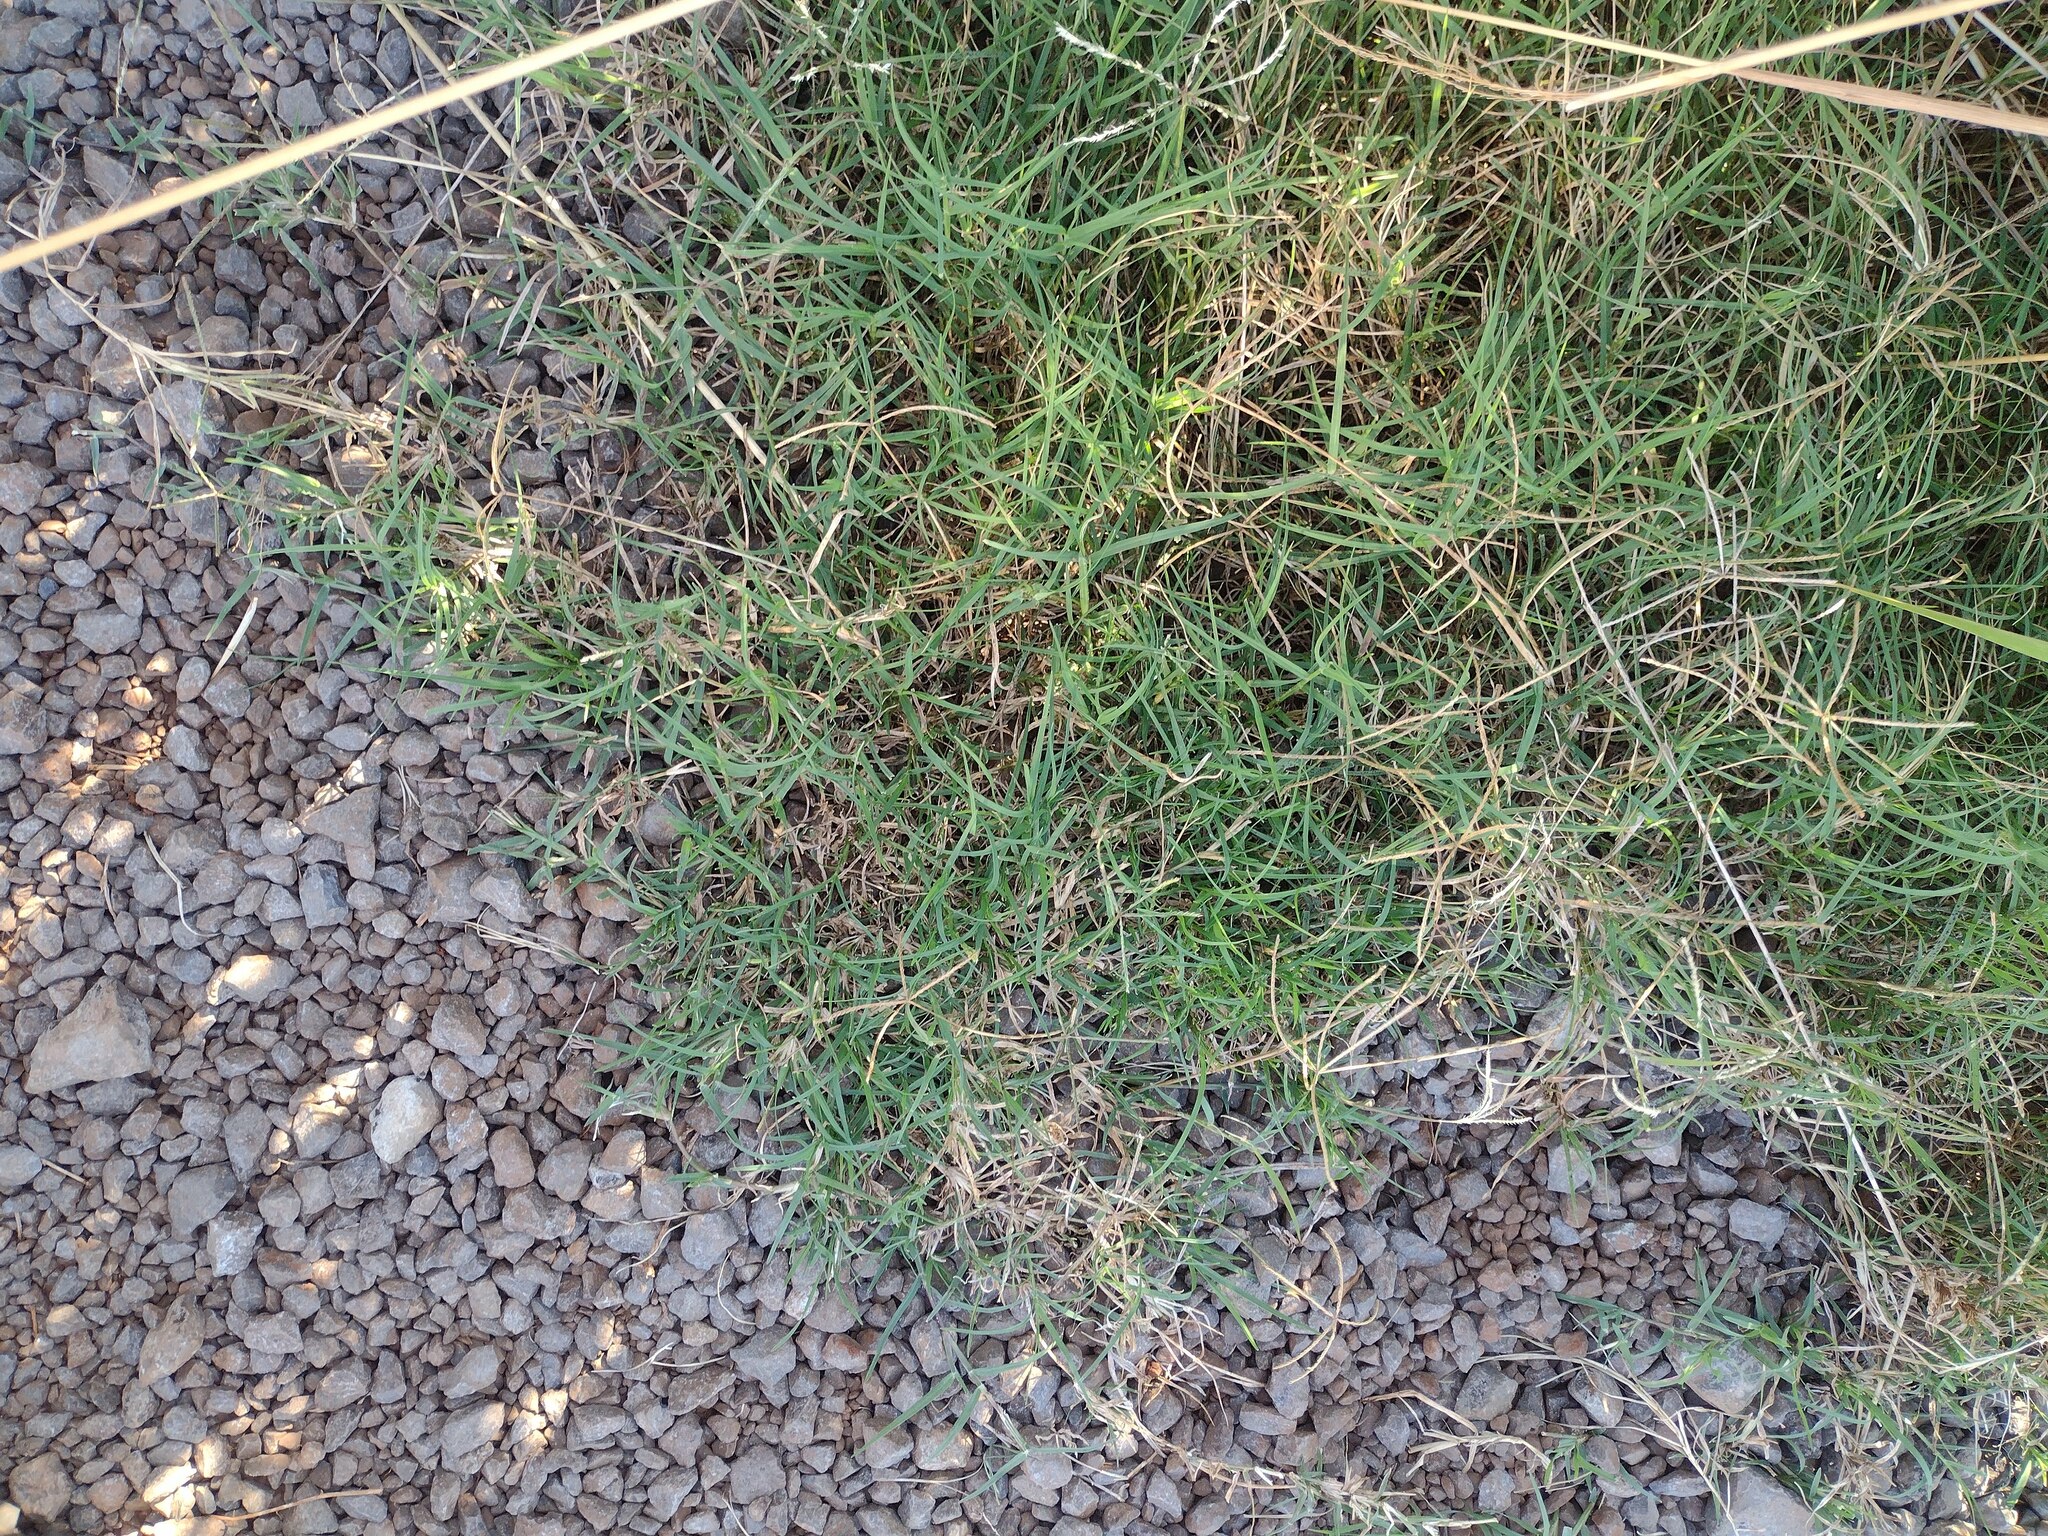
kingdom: Plantae
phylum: Tracheophyta
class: Liliopsida
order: Poales
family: Poaceae
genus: Cynodon
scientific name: Cynodon dactylon
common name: Bermuda grass
